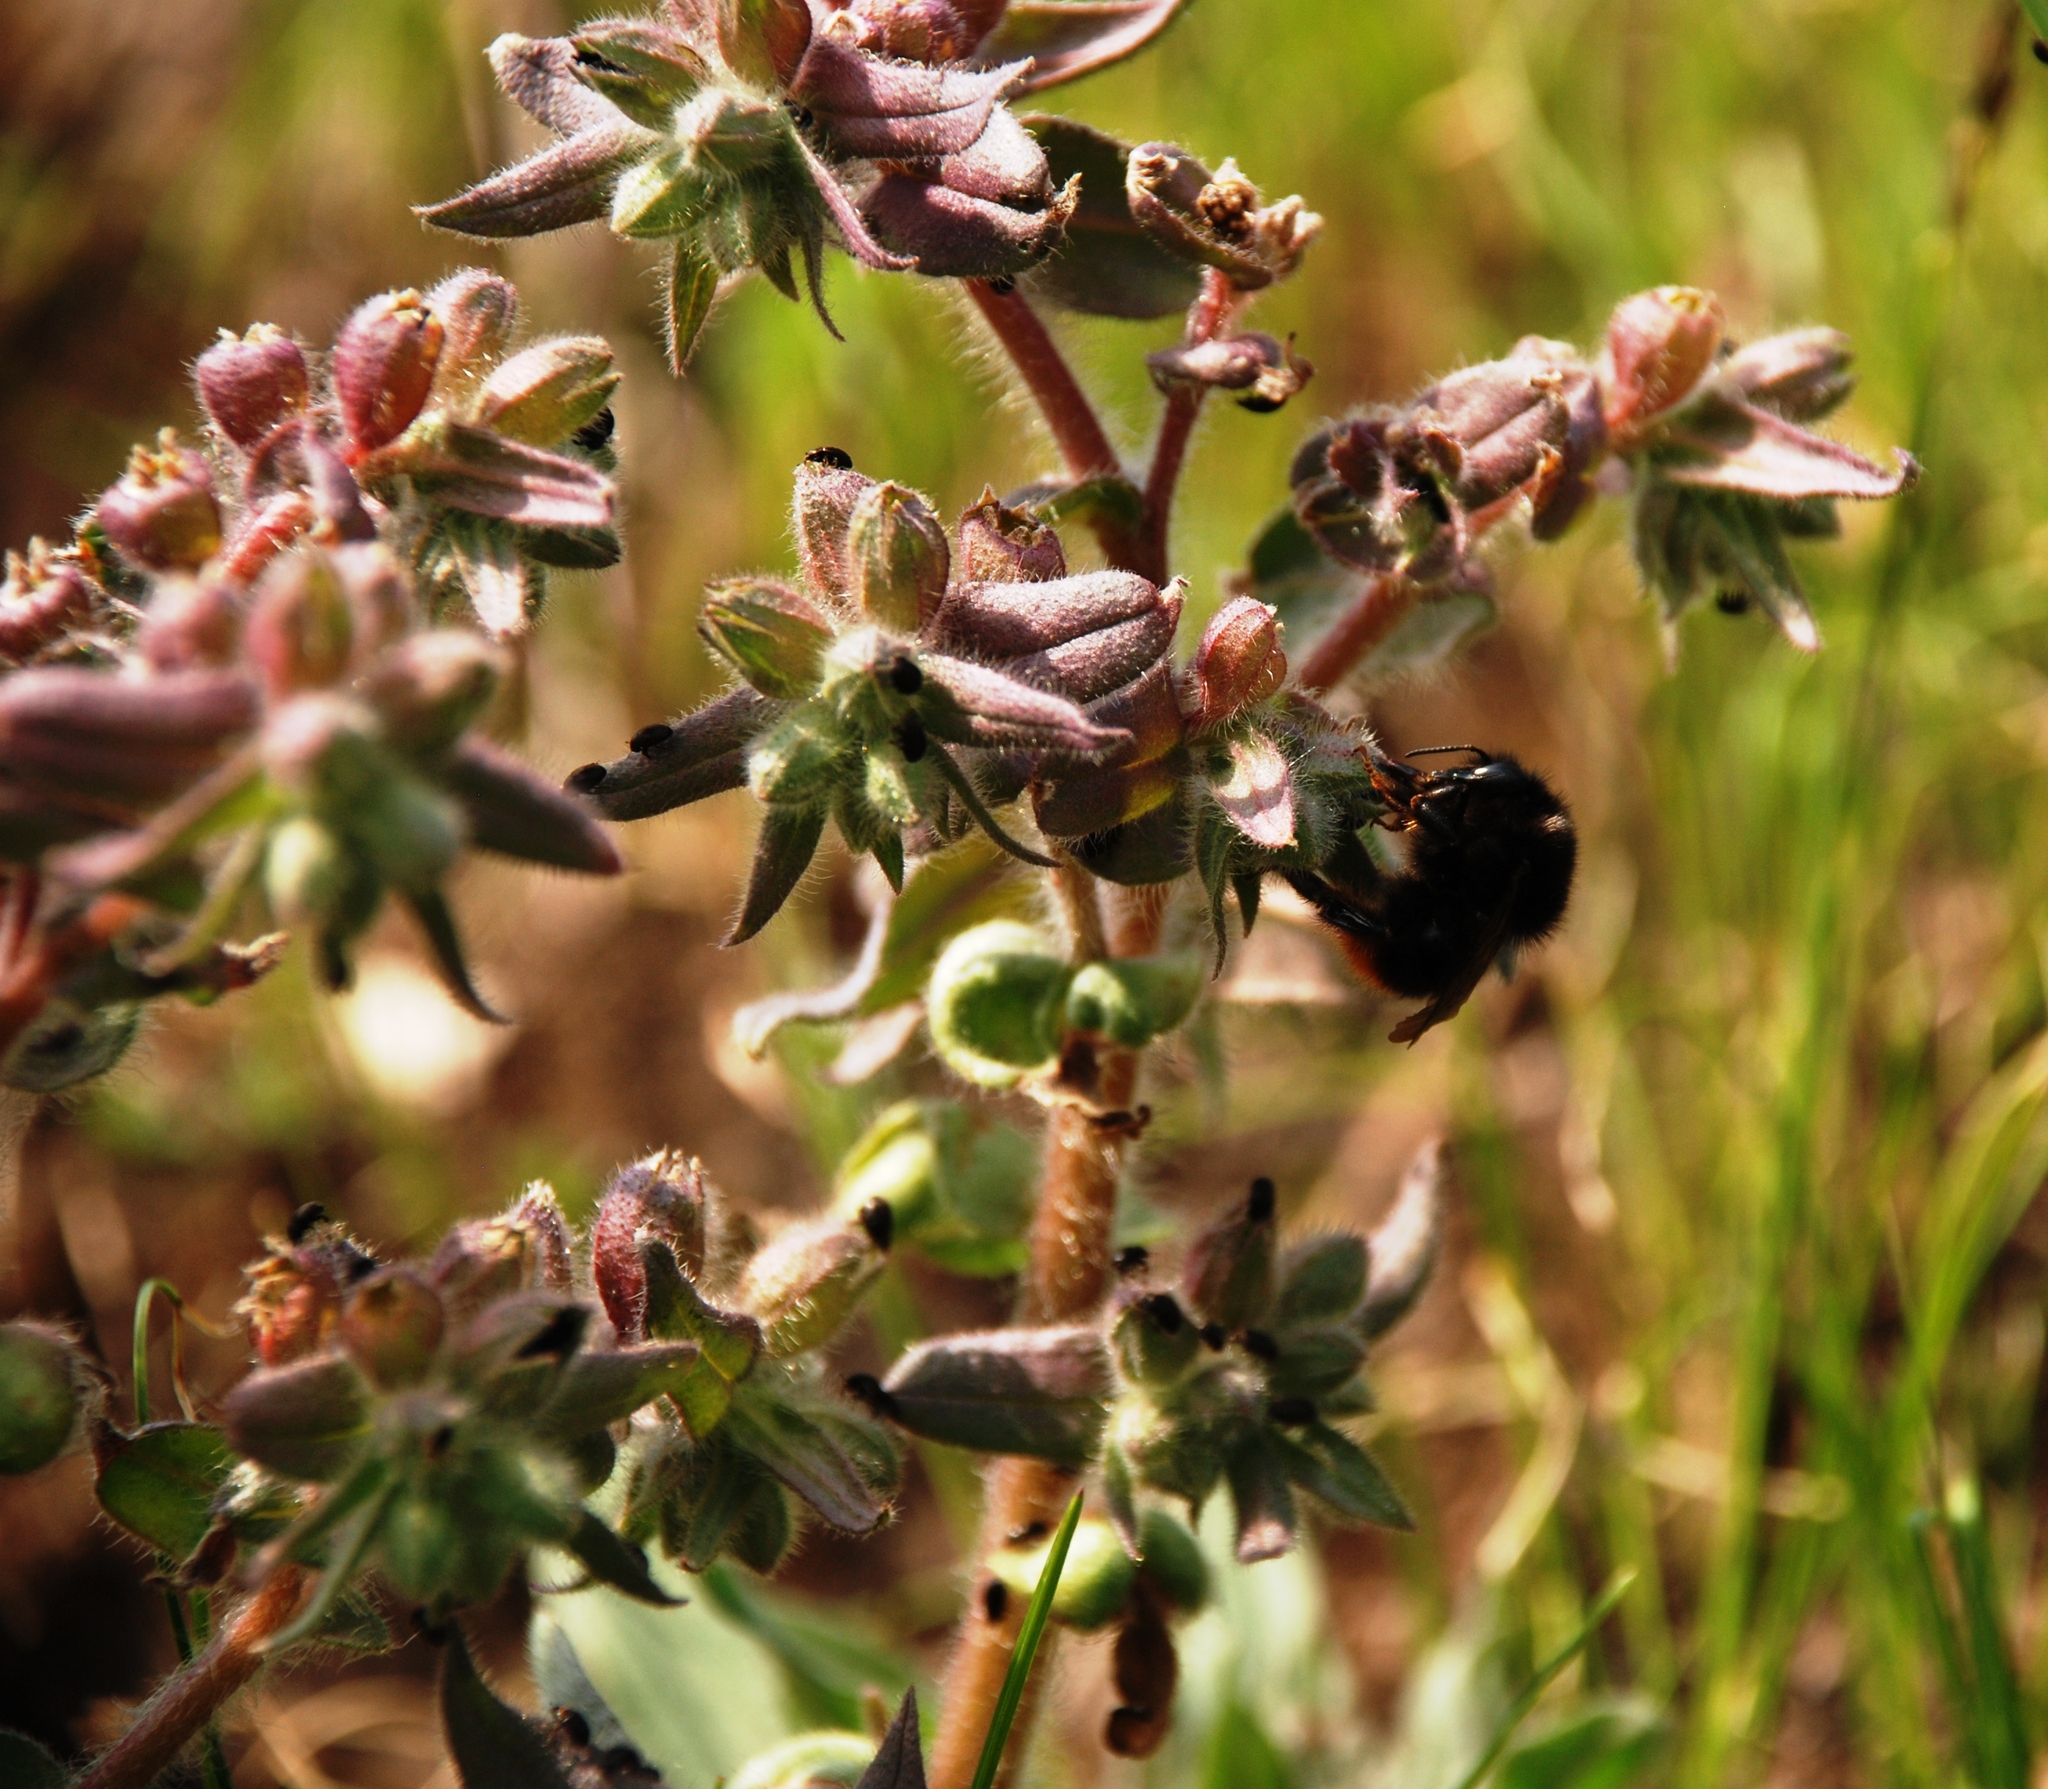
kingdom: Animalia
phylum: Arthropoda
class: Insecta
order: Hymenoptera
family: Apidae
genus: Bombus
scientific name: Bombus ruderarius
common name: Red-shanked carder-bee
